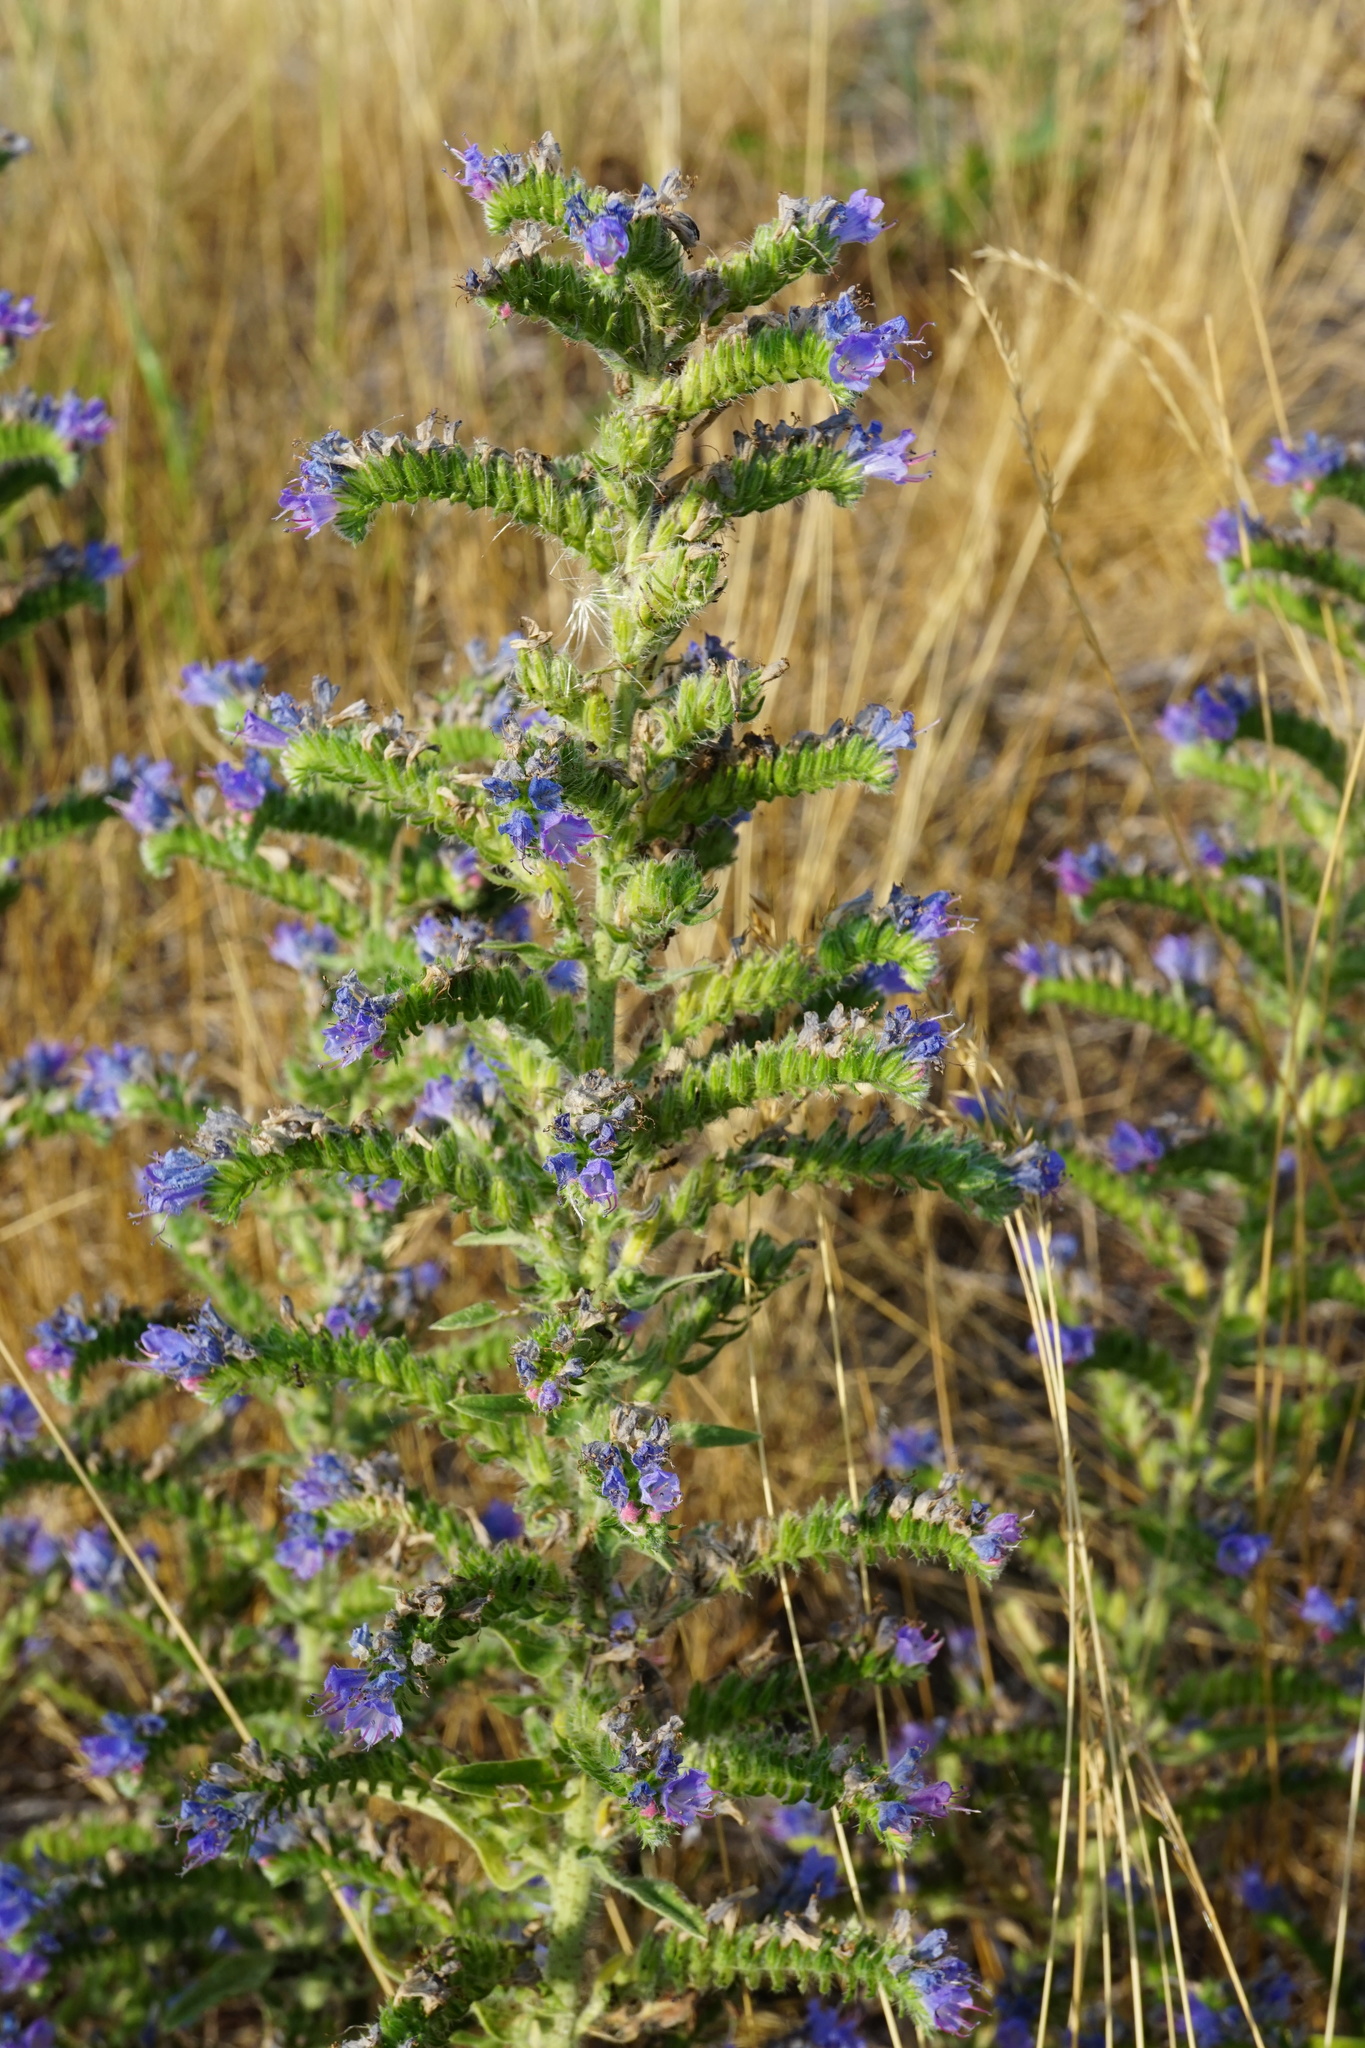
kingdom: Plantae
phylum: Tracheophyta
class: Magnoliopsida
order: Boraginales
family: Boraginaceae
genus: Echium
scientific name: Echium vulgare
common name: Common viper's bugloss
